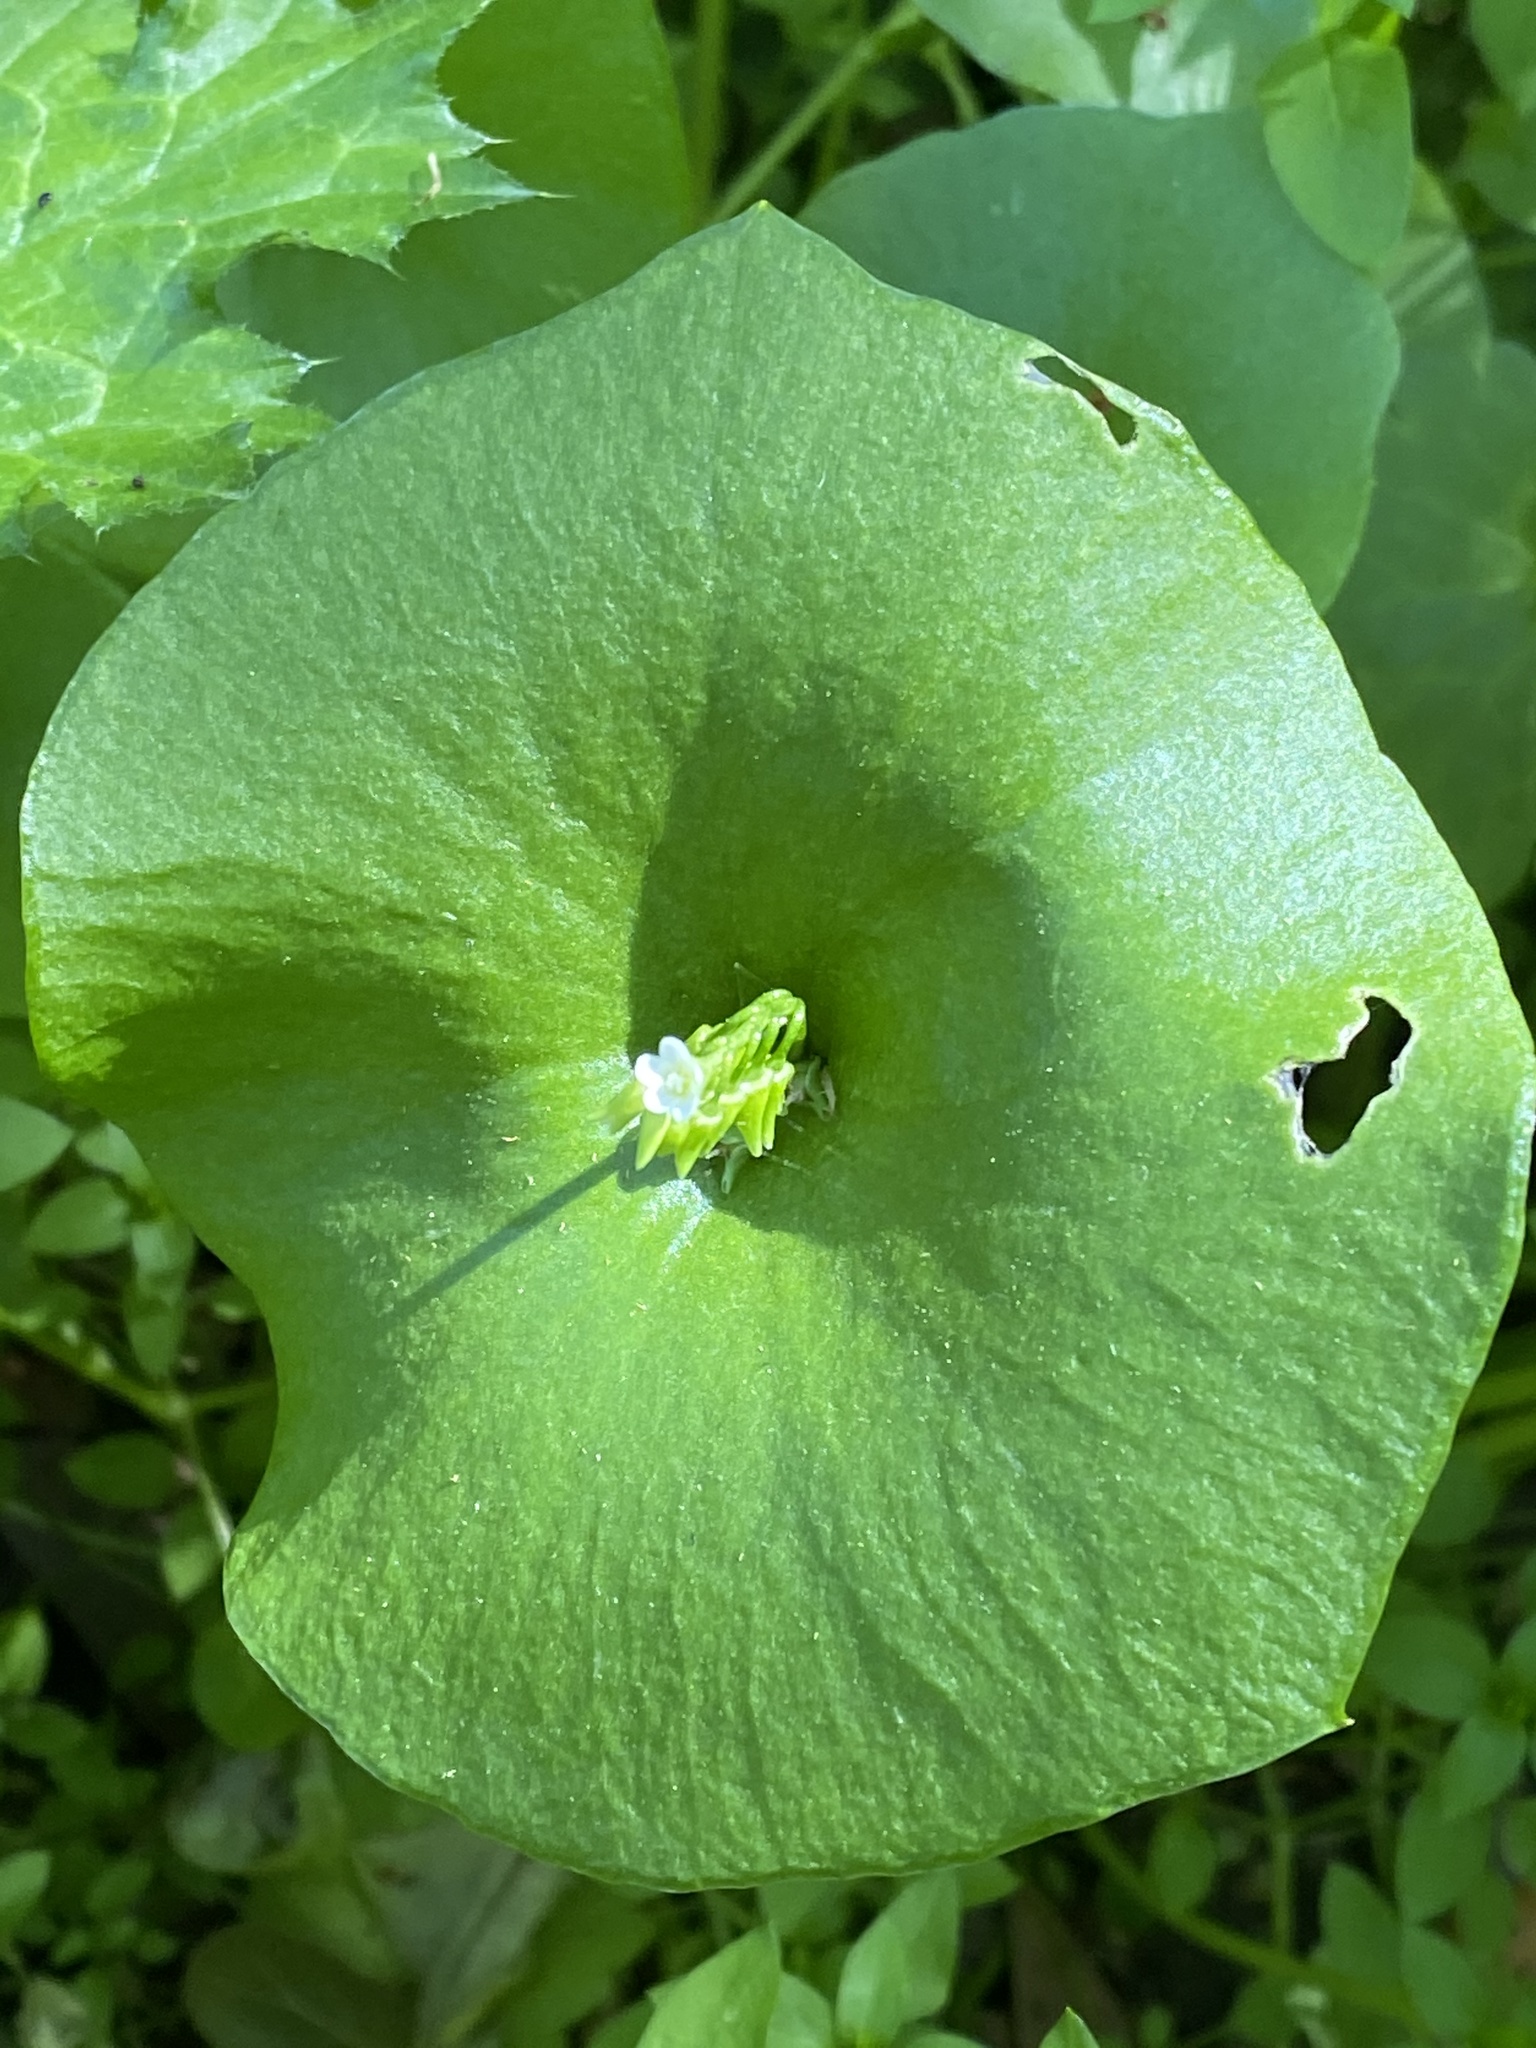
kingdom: Plantae
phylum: Tracheophyta
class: Magnoliopsida
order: Caryophyllales
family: Montiaceae
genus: Claytonia
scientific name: Claytonia perfoliata
